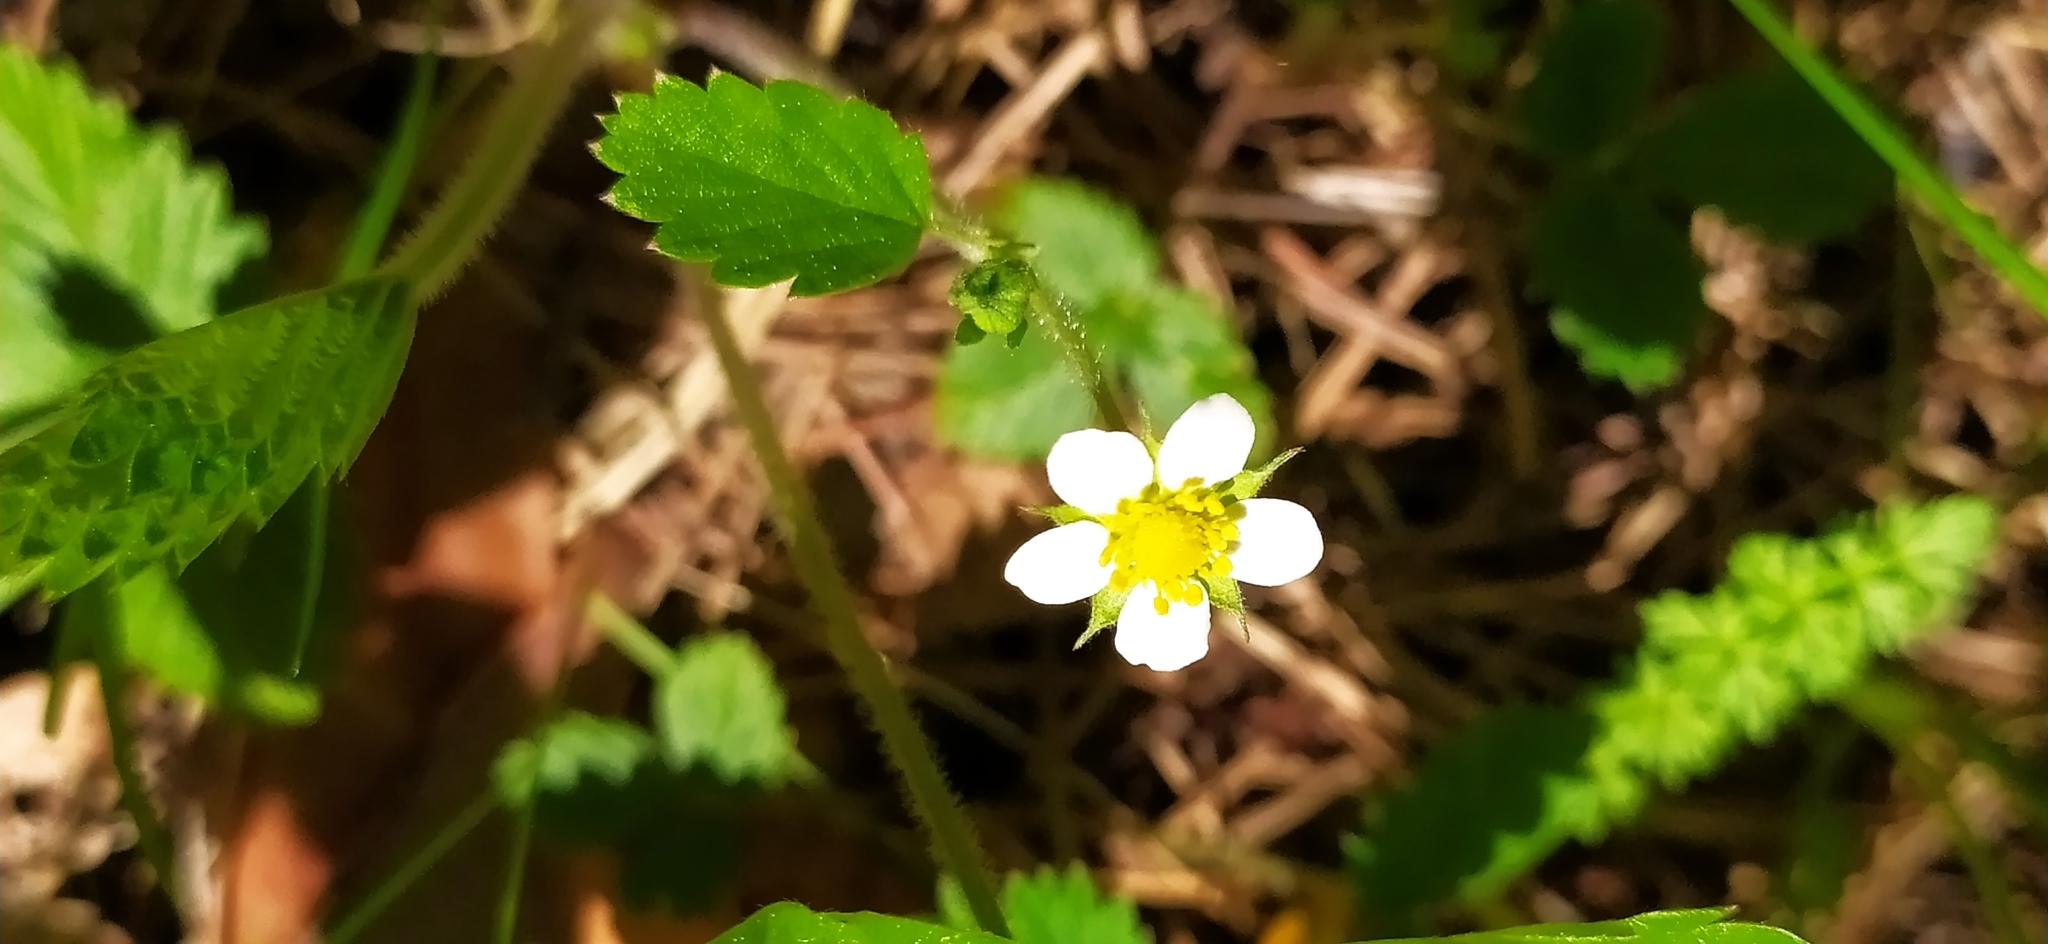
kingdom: Plantae
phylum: Tracheophyta
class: Magnoliopsida
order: Rosales
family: Rosaceae
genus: Fragaria
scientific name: Fragaria vesca
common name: Wild strawberry
